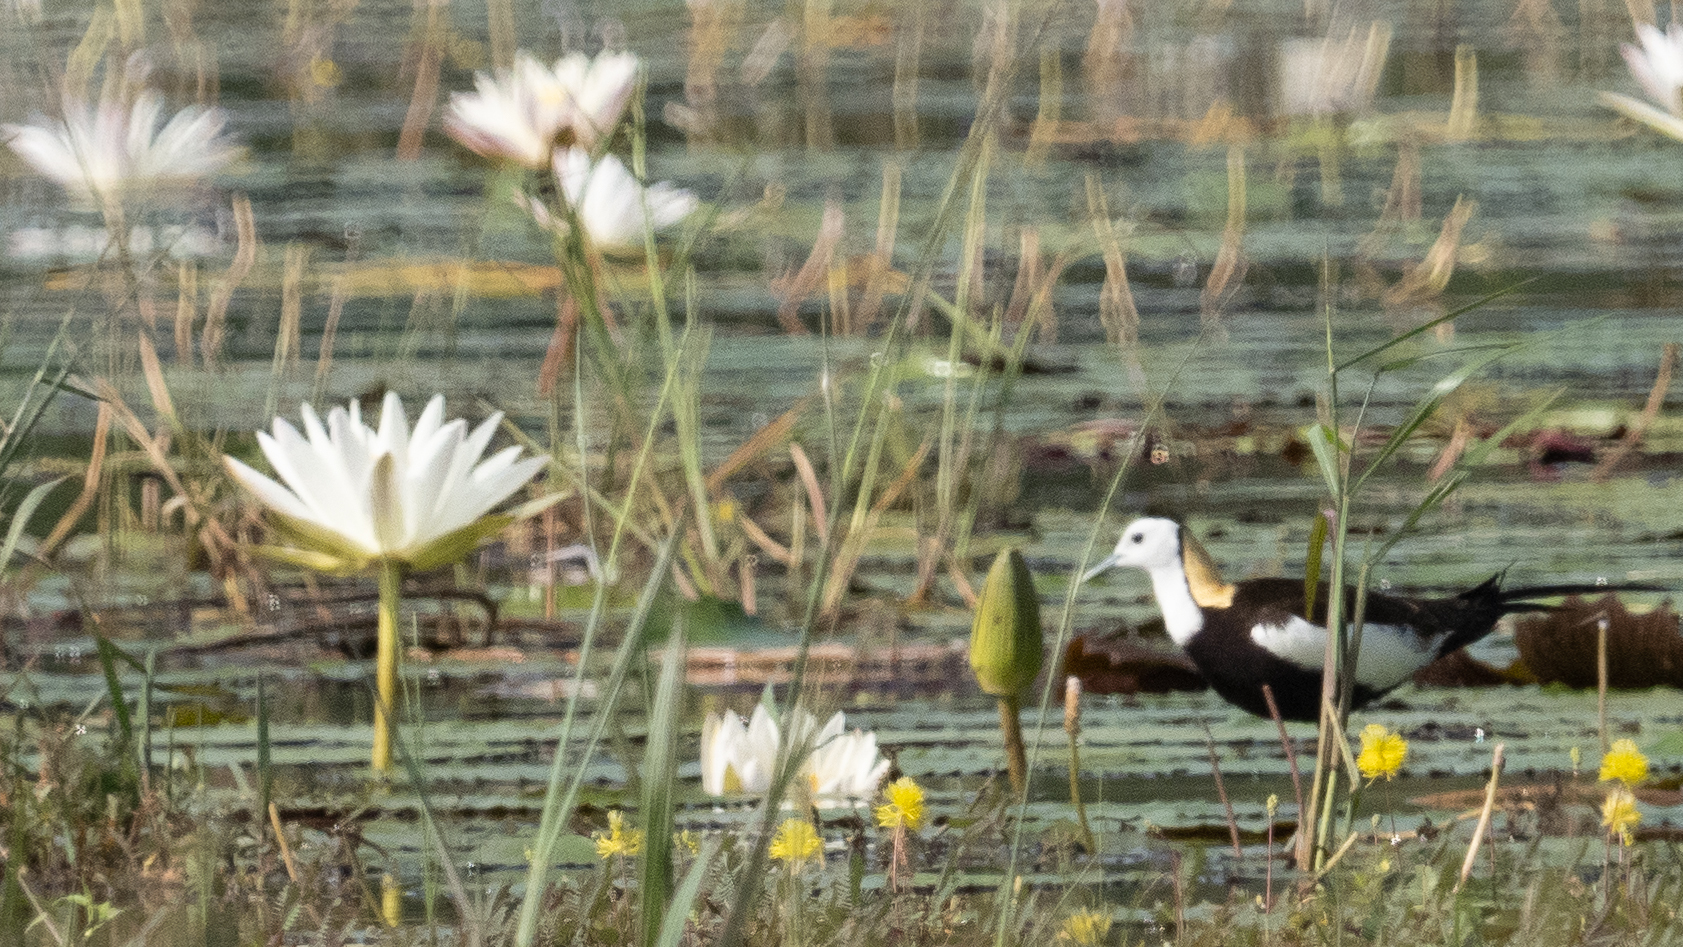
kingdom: Animalia
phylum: Chordata
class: Aves
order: Charadriiformes
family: Jacanidae
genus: Hydrophasianus
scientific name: Hydrophasianus chirurgus
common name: Pheasant-tailed jacana
